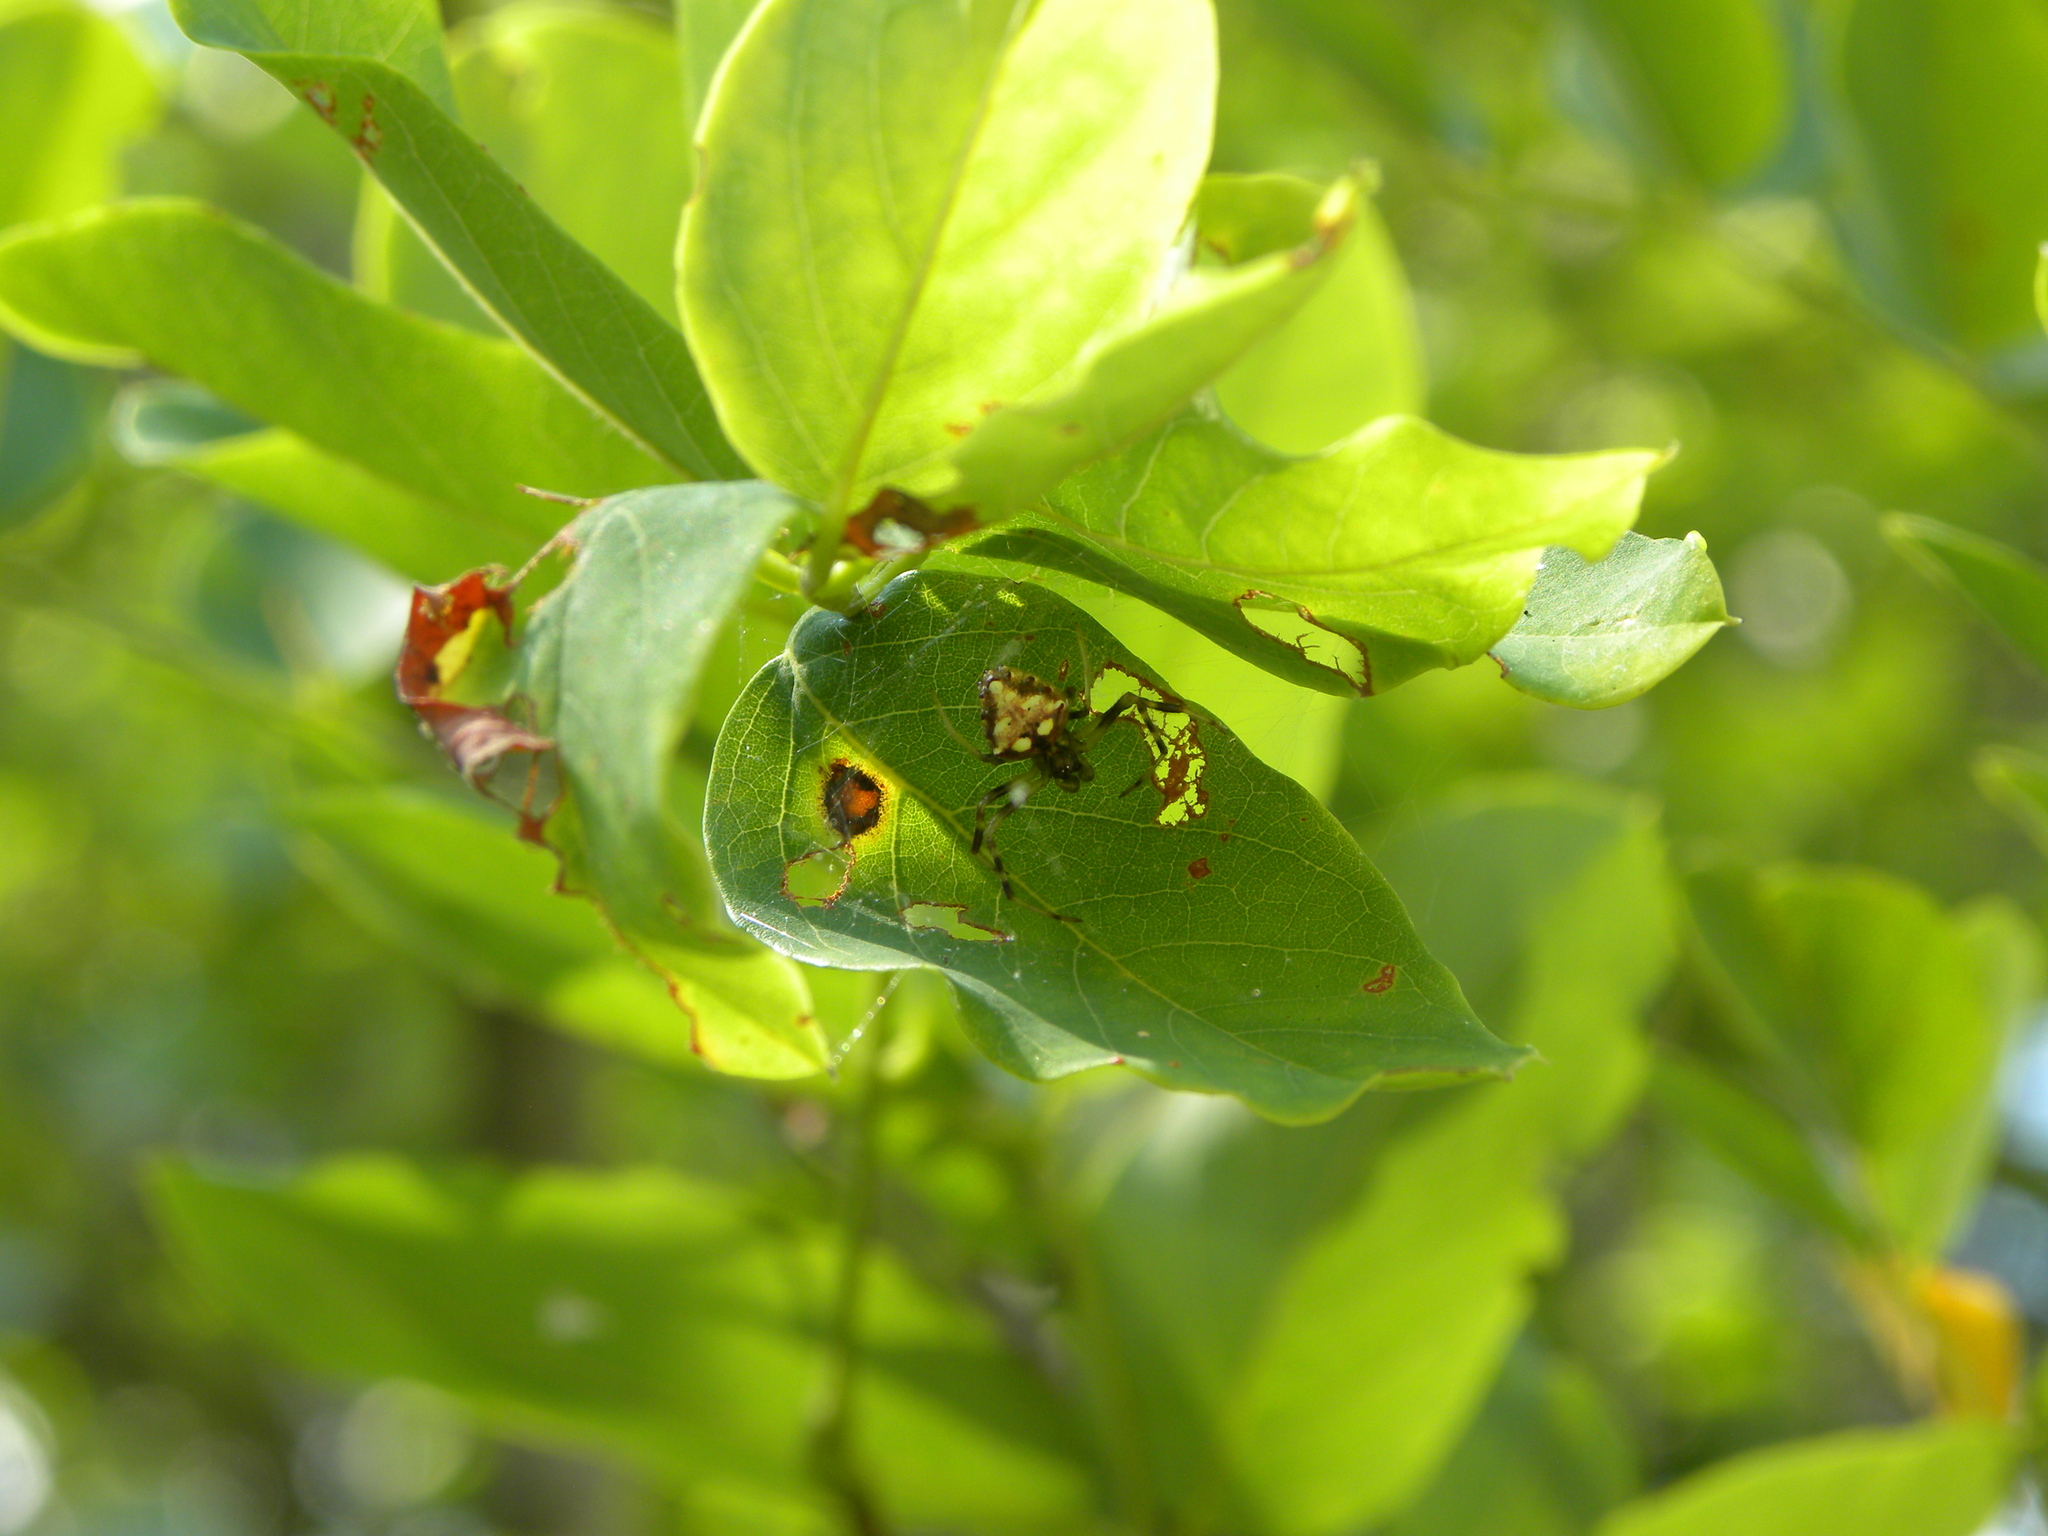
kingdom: Animalia
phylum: Arthropoda
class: Arachnida
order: Araneae
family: Araneidae
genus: Verrucosa
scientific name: Verrucosa arenata
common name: Orb weavers
